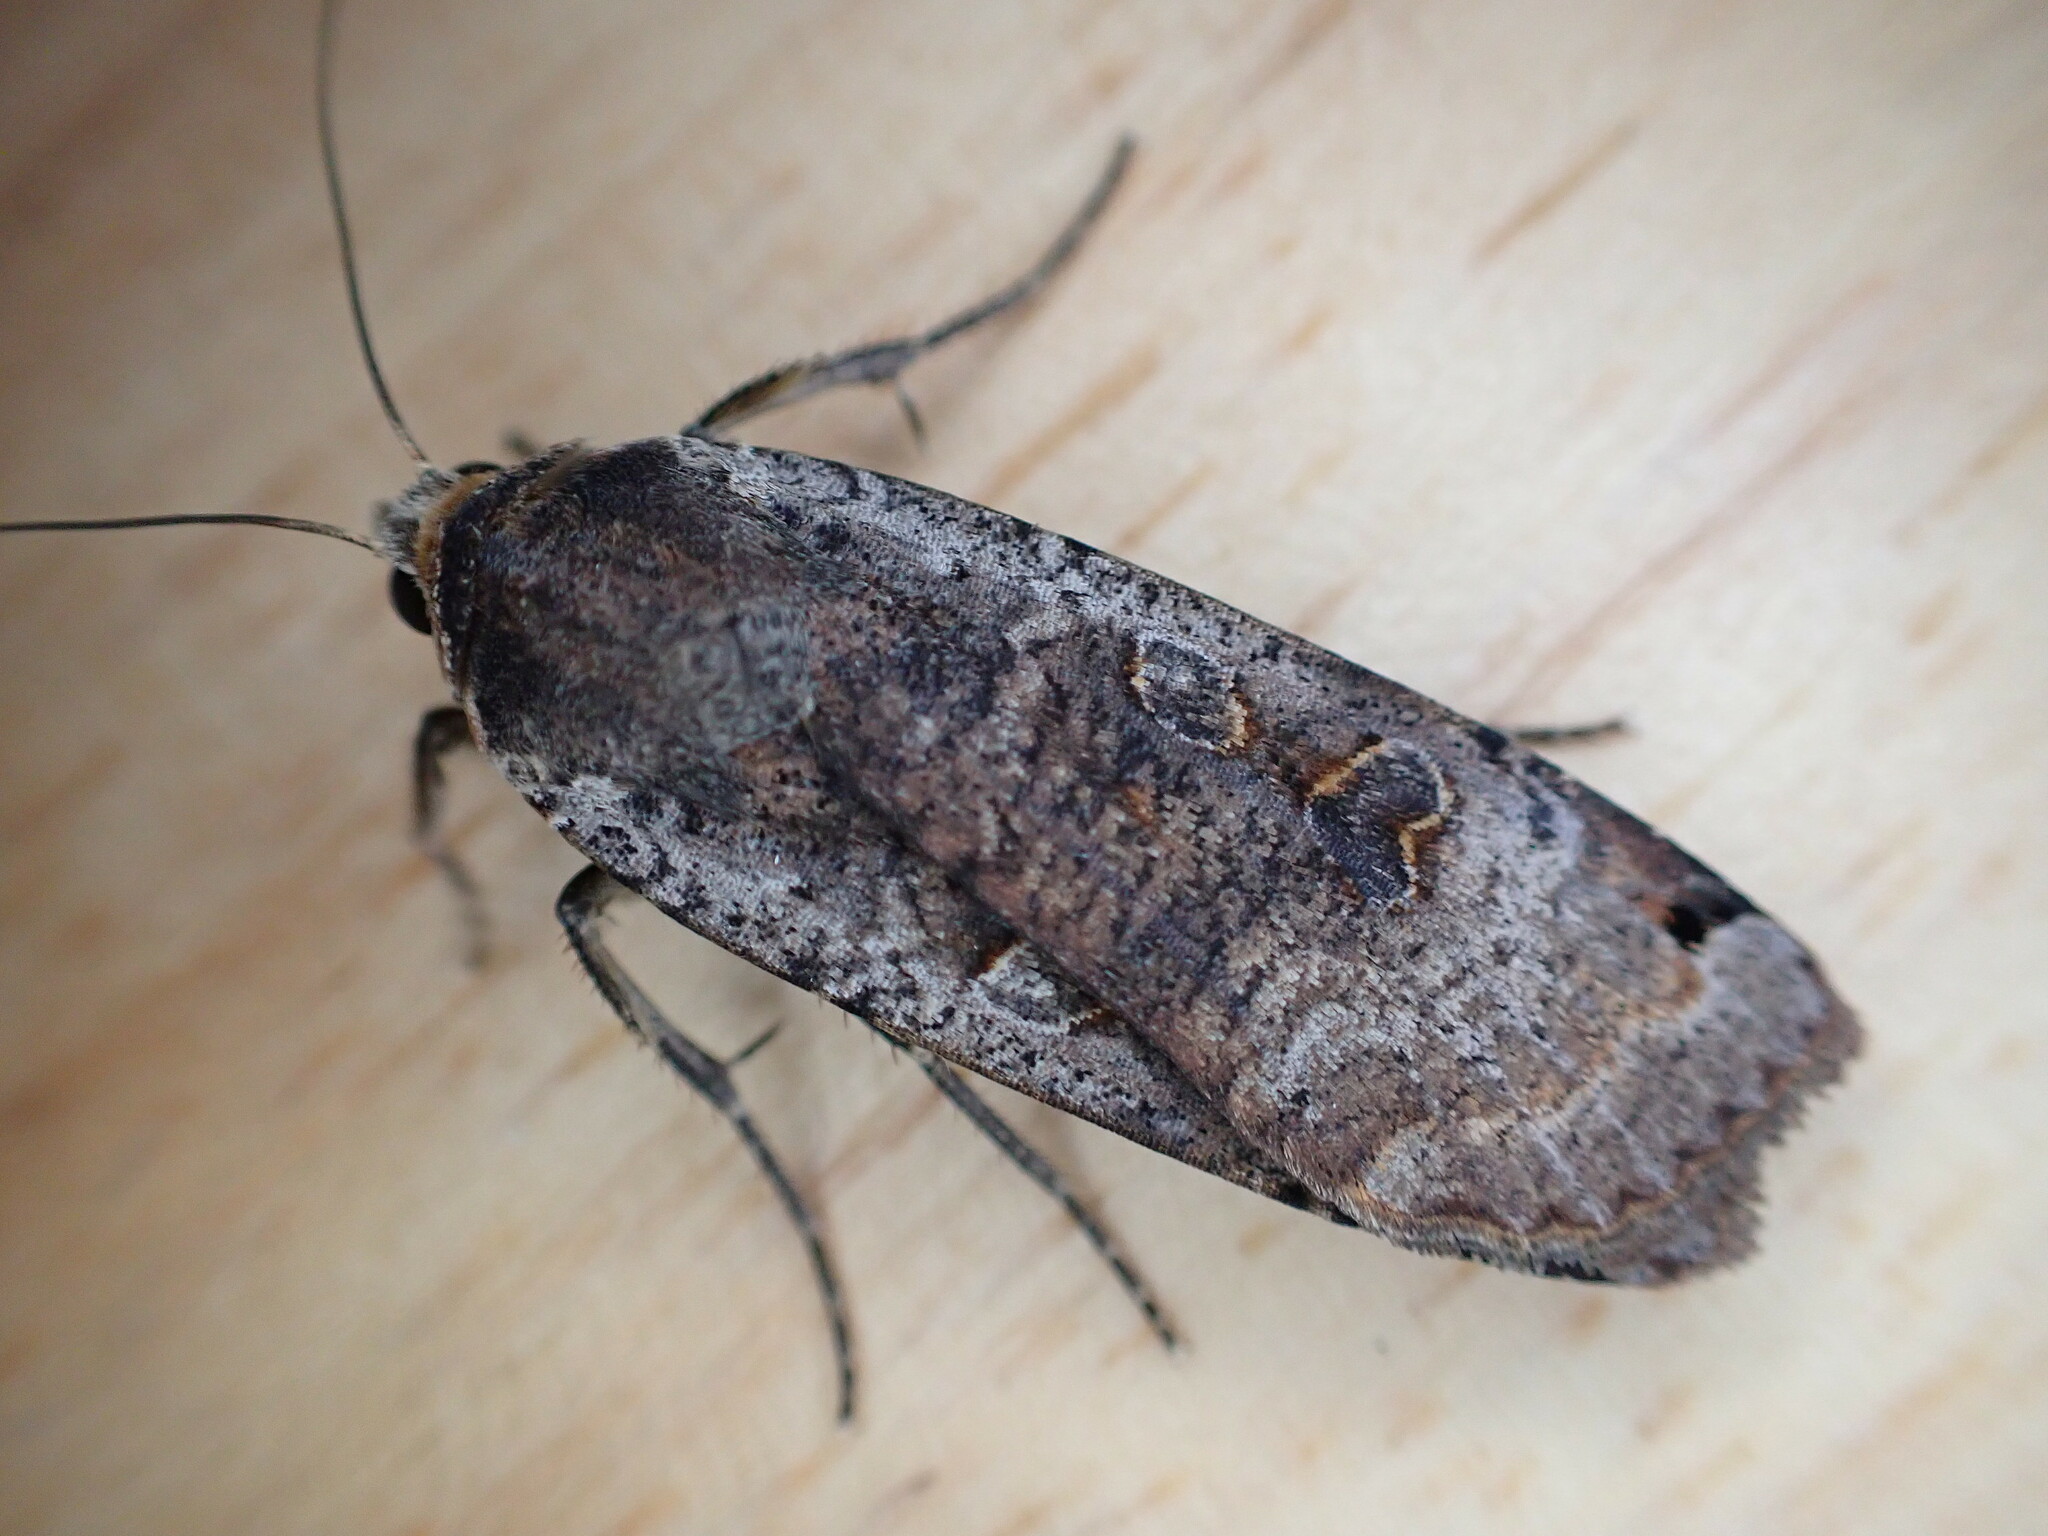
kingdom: Animalia
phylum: Arthropoda
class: Insecta
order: Lepidoptera
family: Noctuidae
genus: Noctua
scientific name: Noctua pronuba
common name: Large yellow underwing
